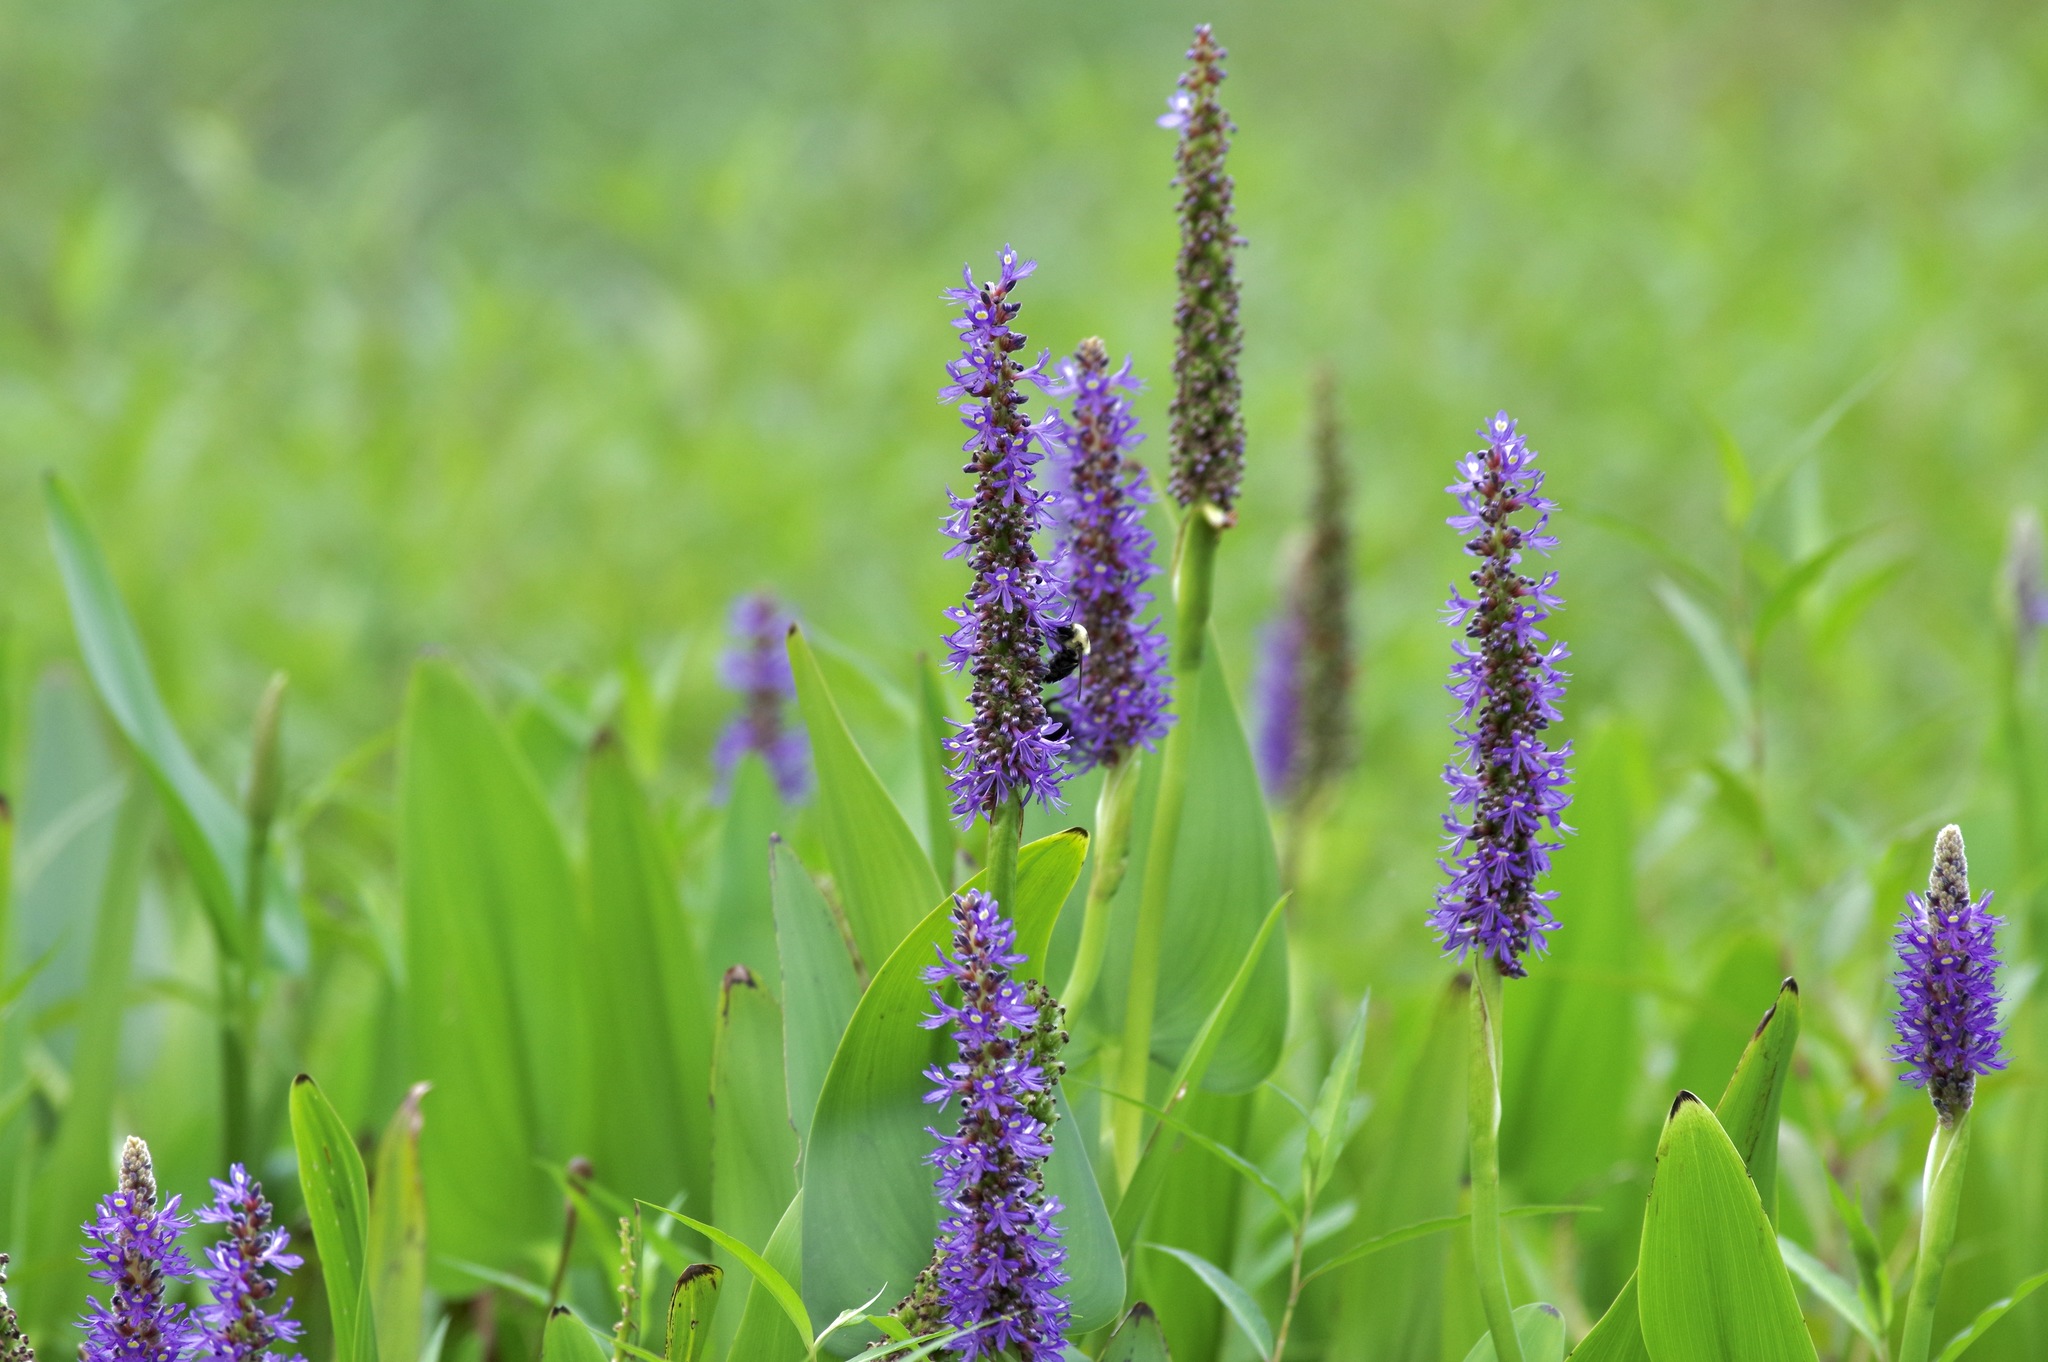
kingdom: Plantae
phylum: Tracheophyta
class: Liliopsida
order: Commelinales
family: Pontederiaceae
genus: Pontederia
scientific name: Pontederia cordata
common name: Pickerelweed
